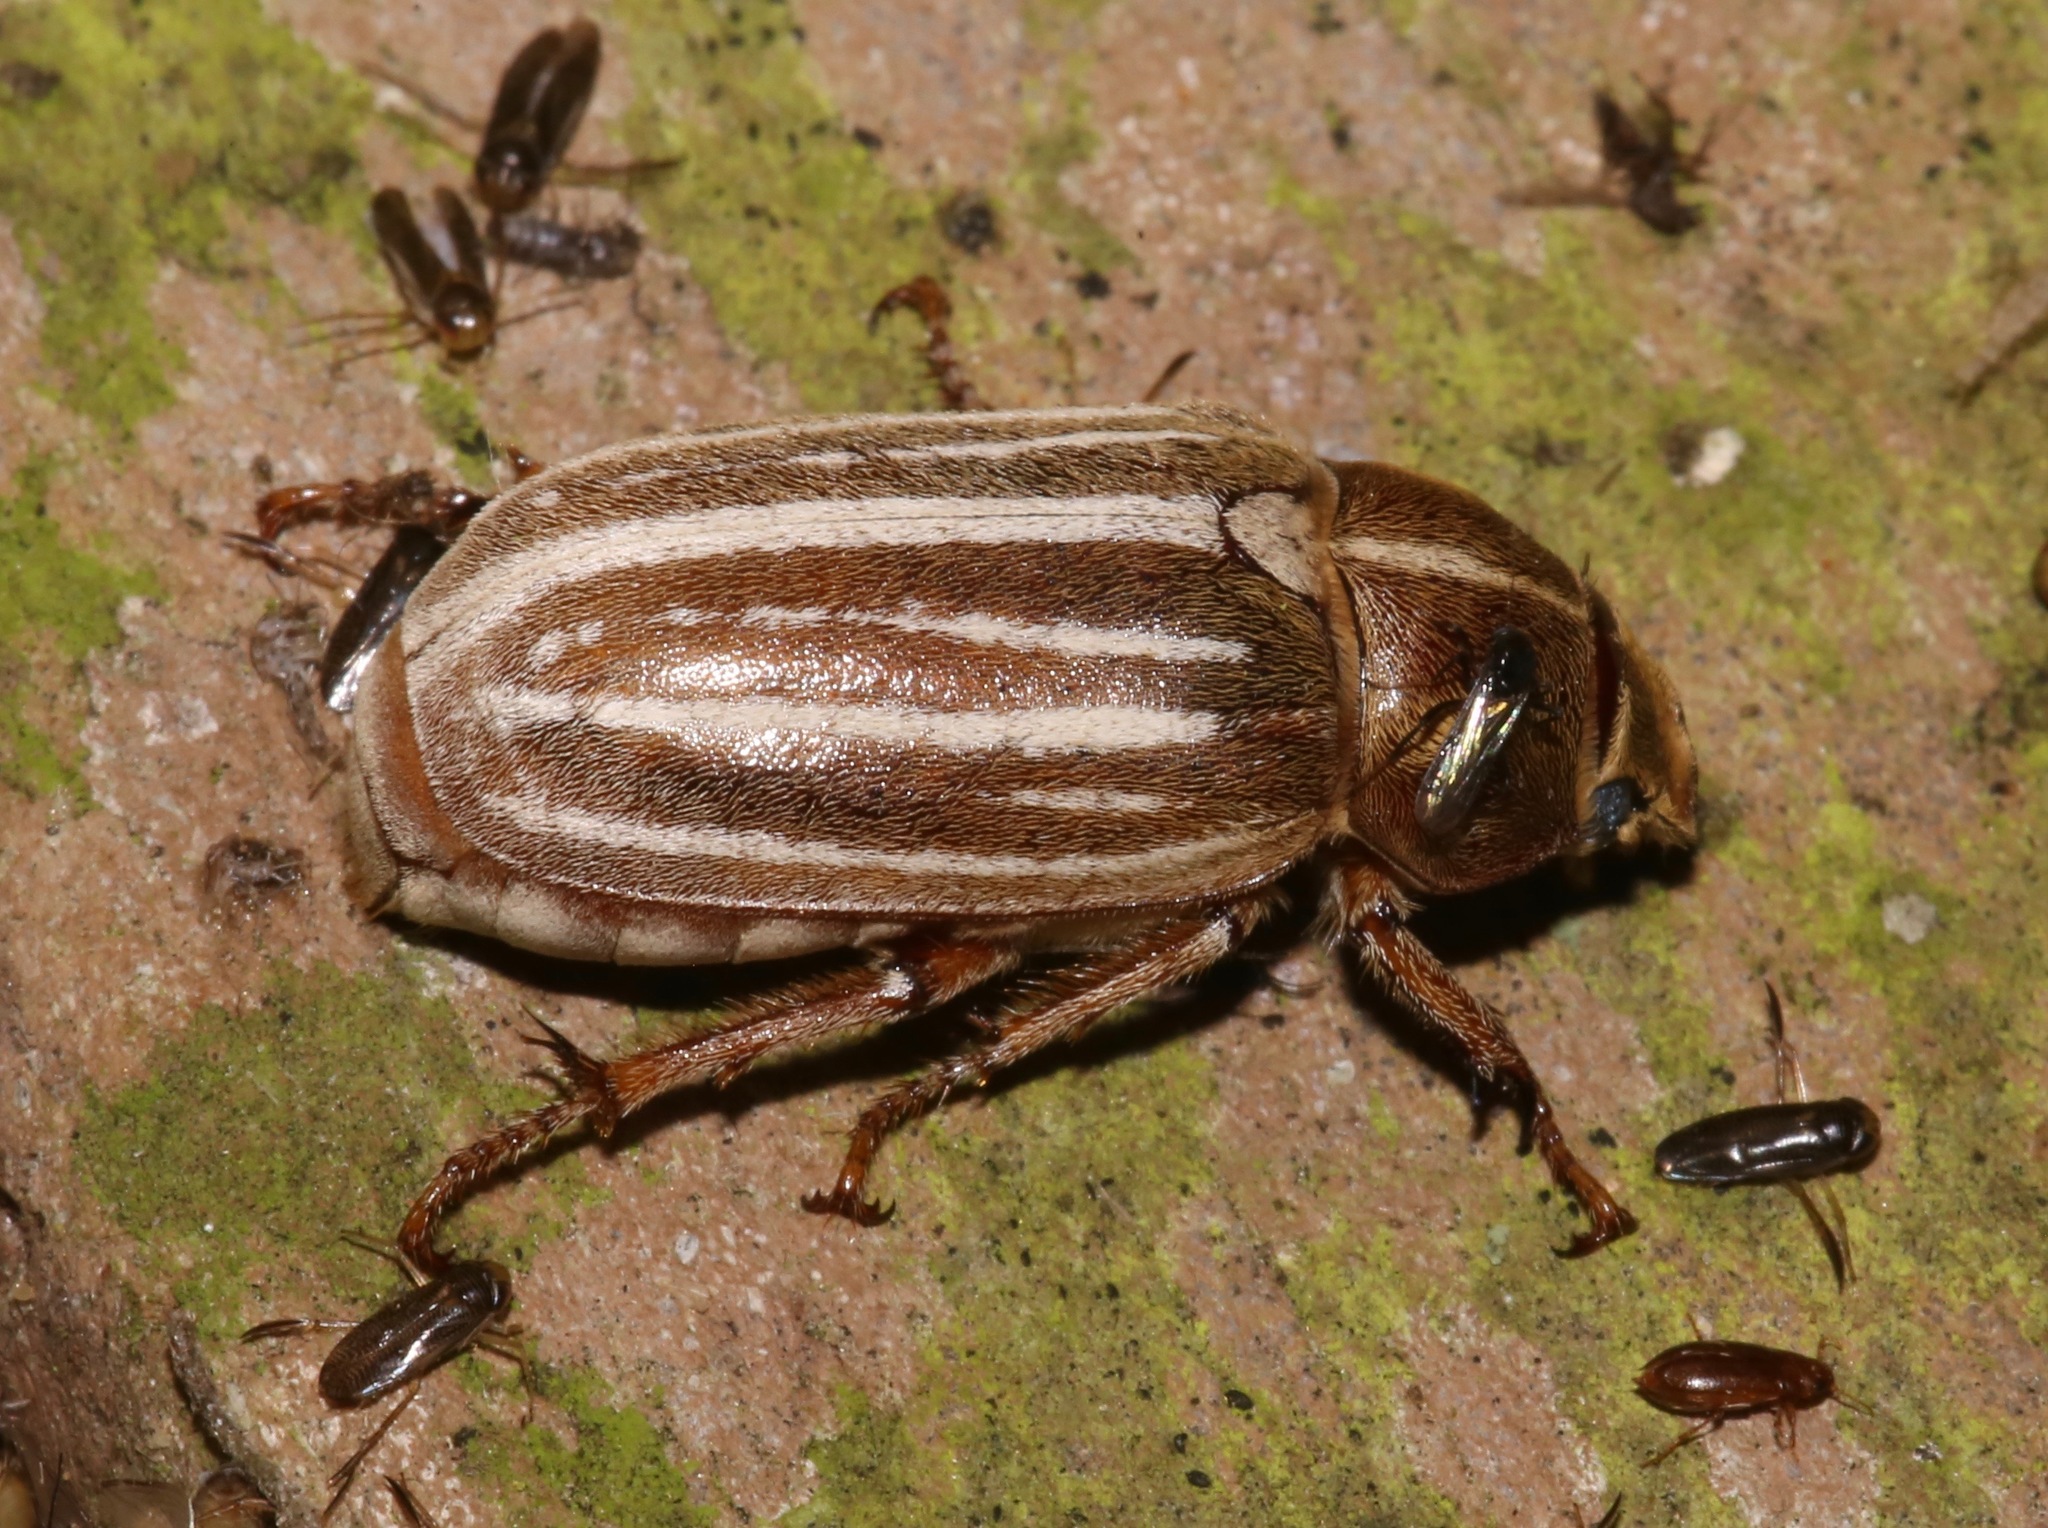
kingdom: Animalia
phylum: Arthropoda
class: Insecta
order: Coleoptera
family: Scarabaeidae
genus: Polyphylla
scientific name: Polyphylla occidentalis
